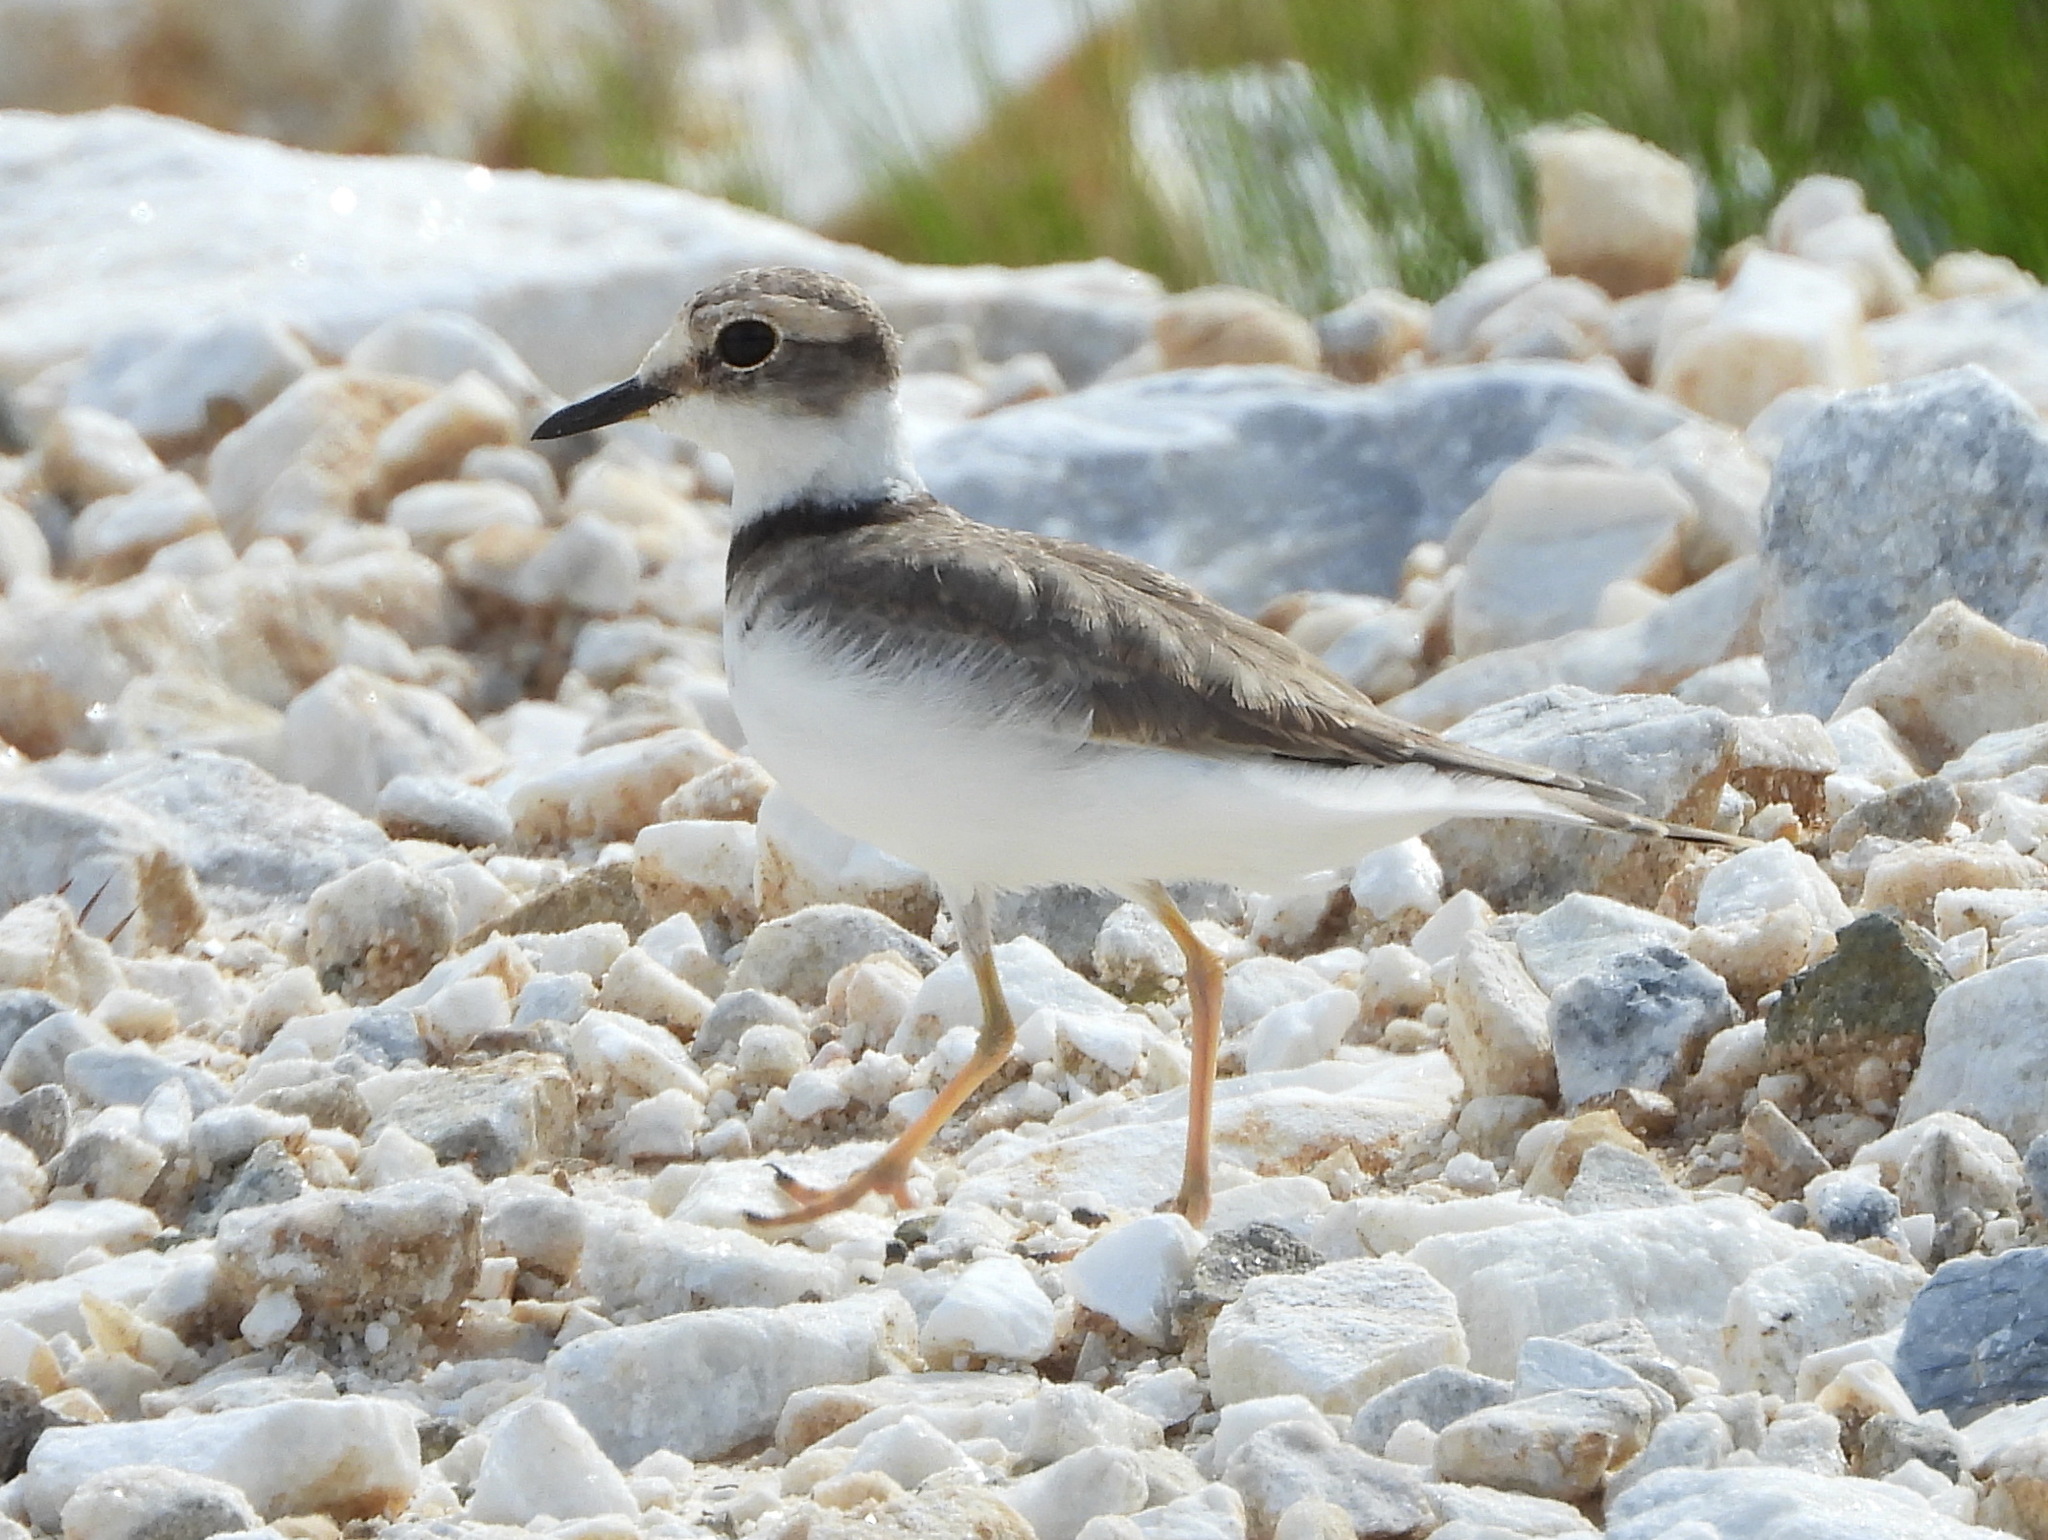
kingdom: Animalia
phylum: Chordata
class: Aves
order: Charadriiformes
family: Charadriidae
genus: Charadrius
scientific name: Charadrius placidus
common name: Long-billed plover
